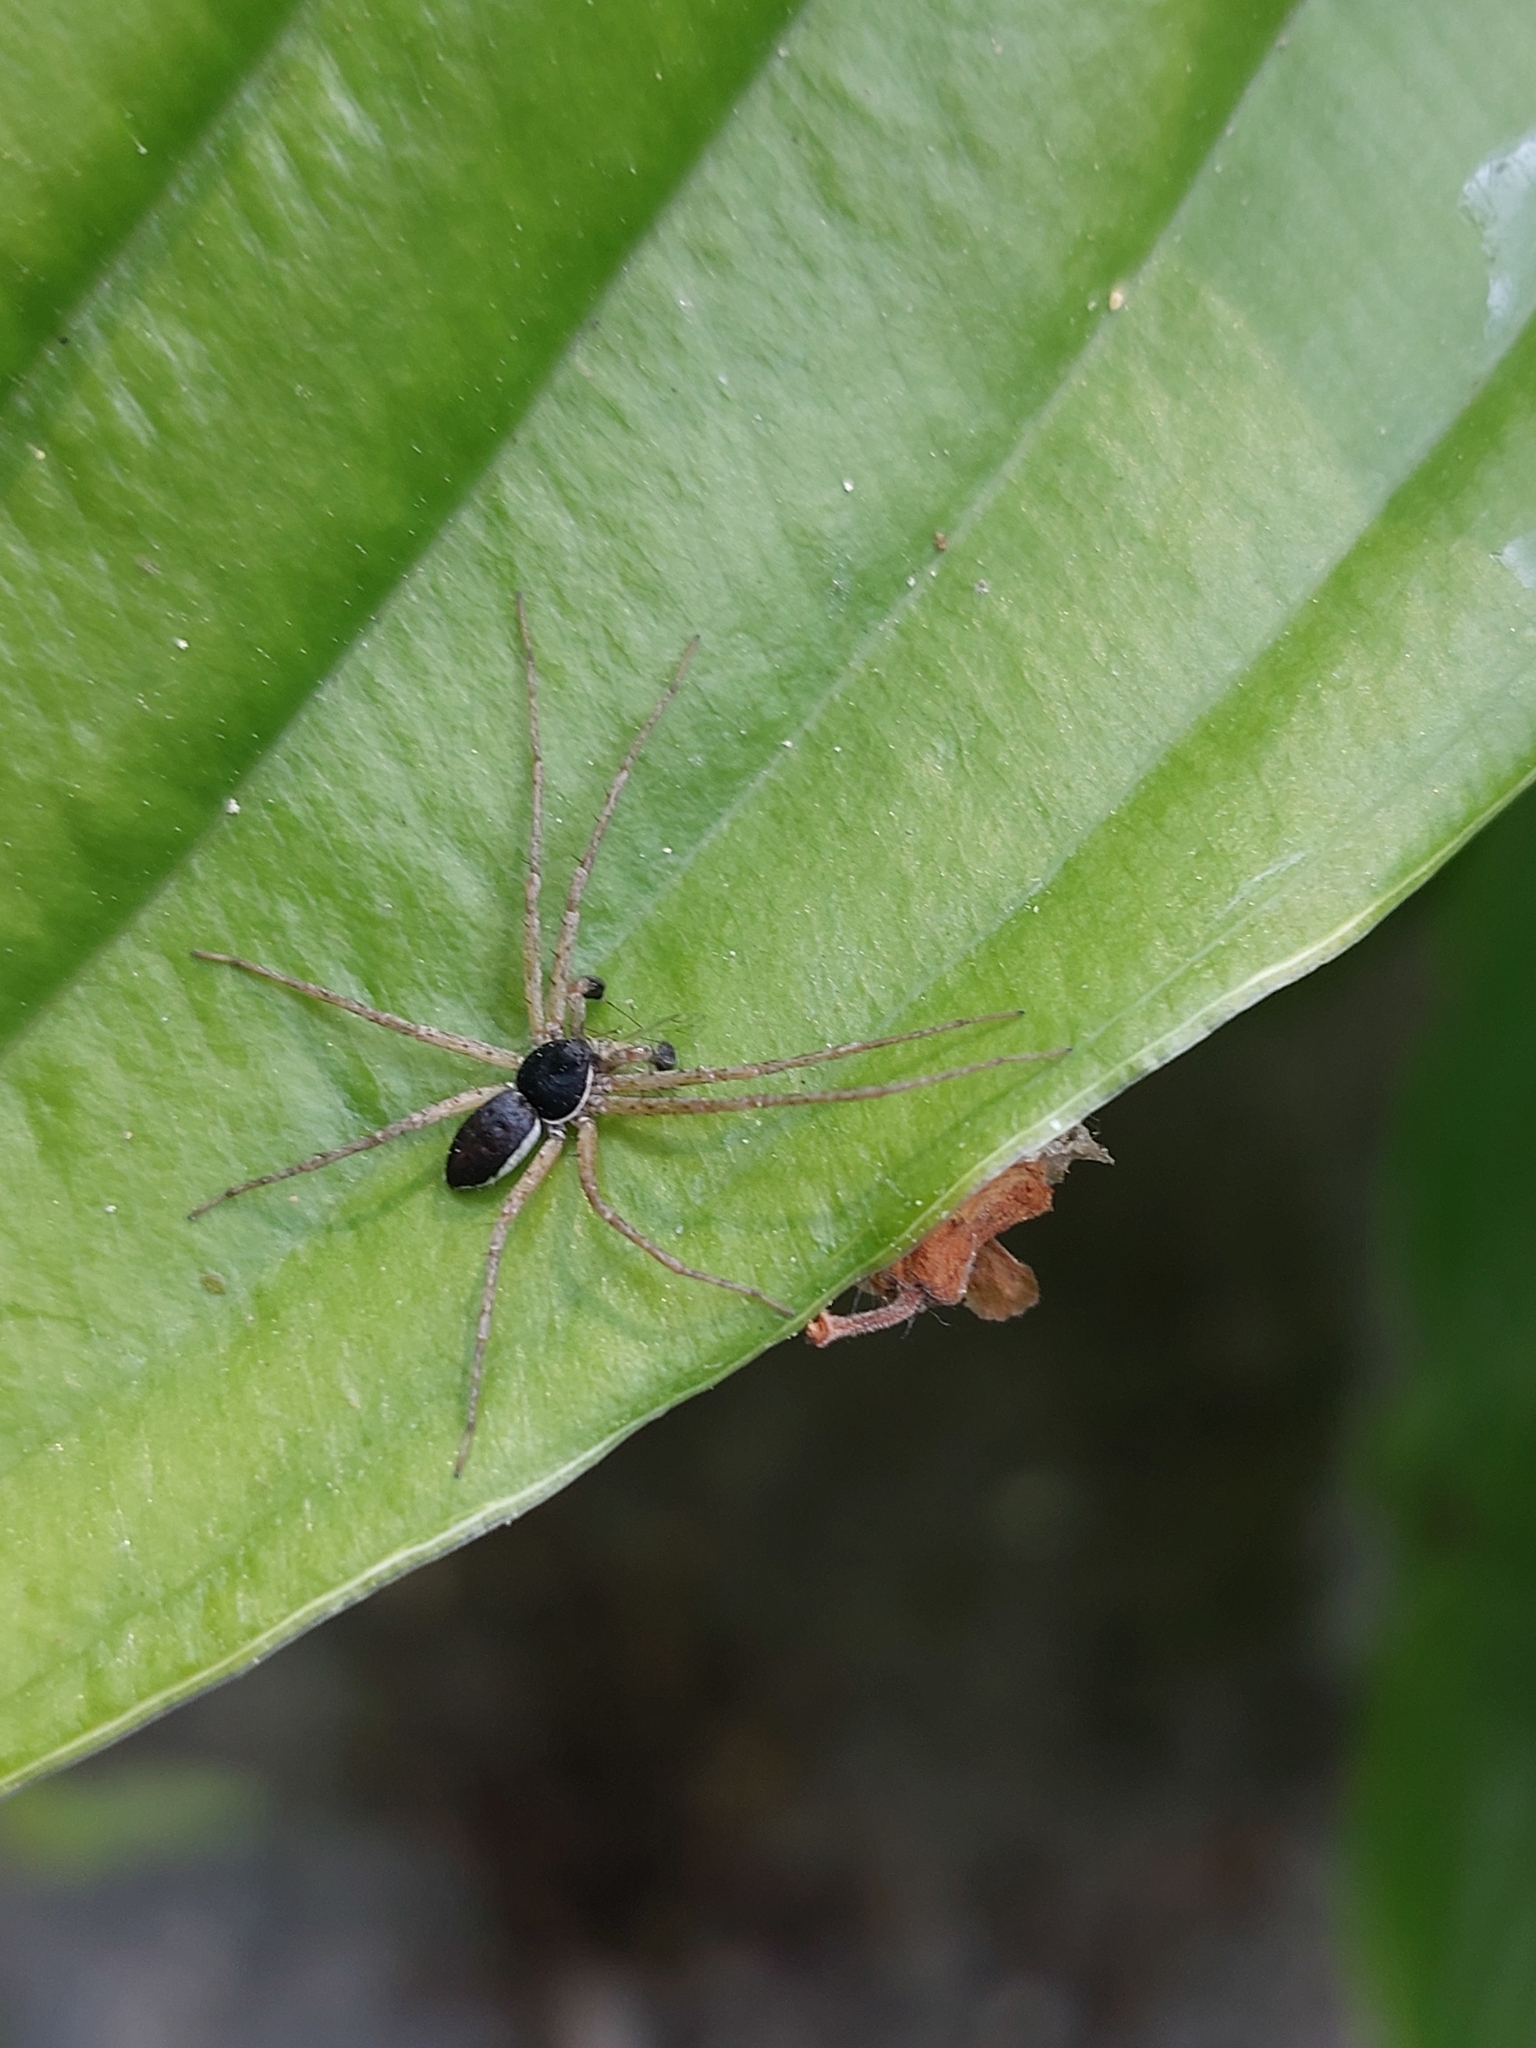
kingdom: Animalia
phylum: Arthropoda
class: Arachnida
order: Araneae
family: Philodromidae
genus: Philodromus
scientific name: Philodromus dispar
